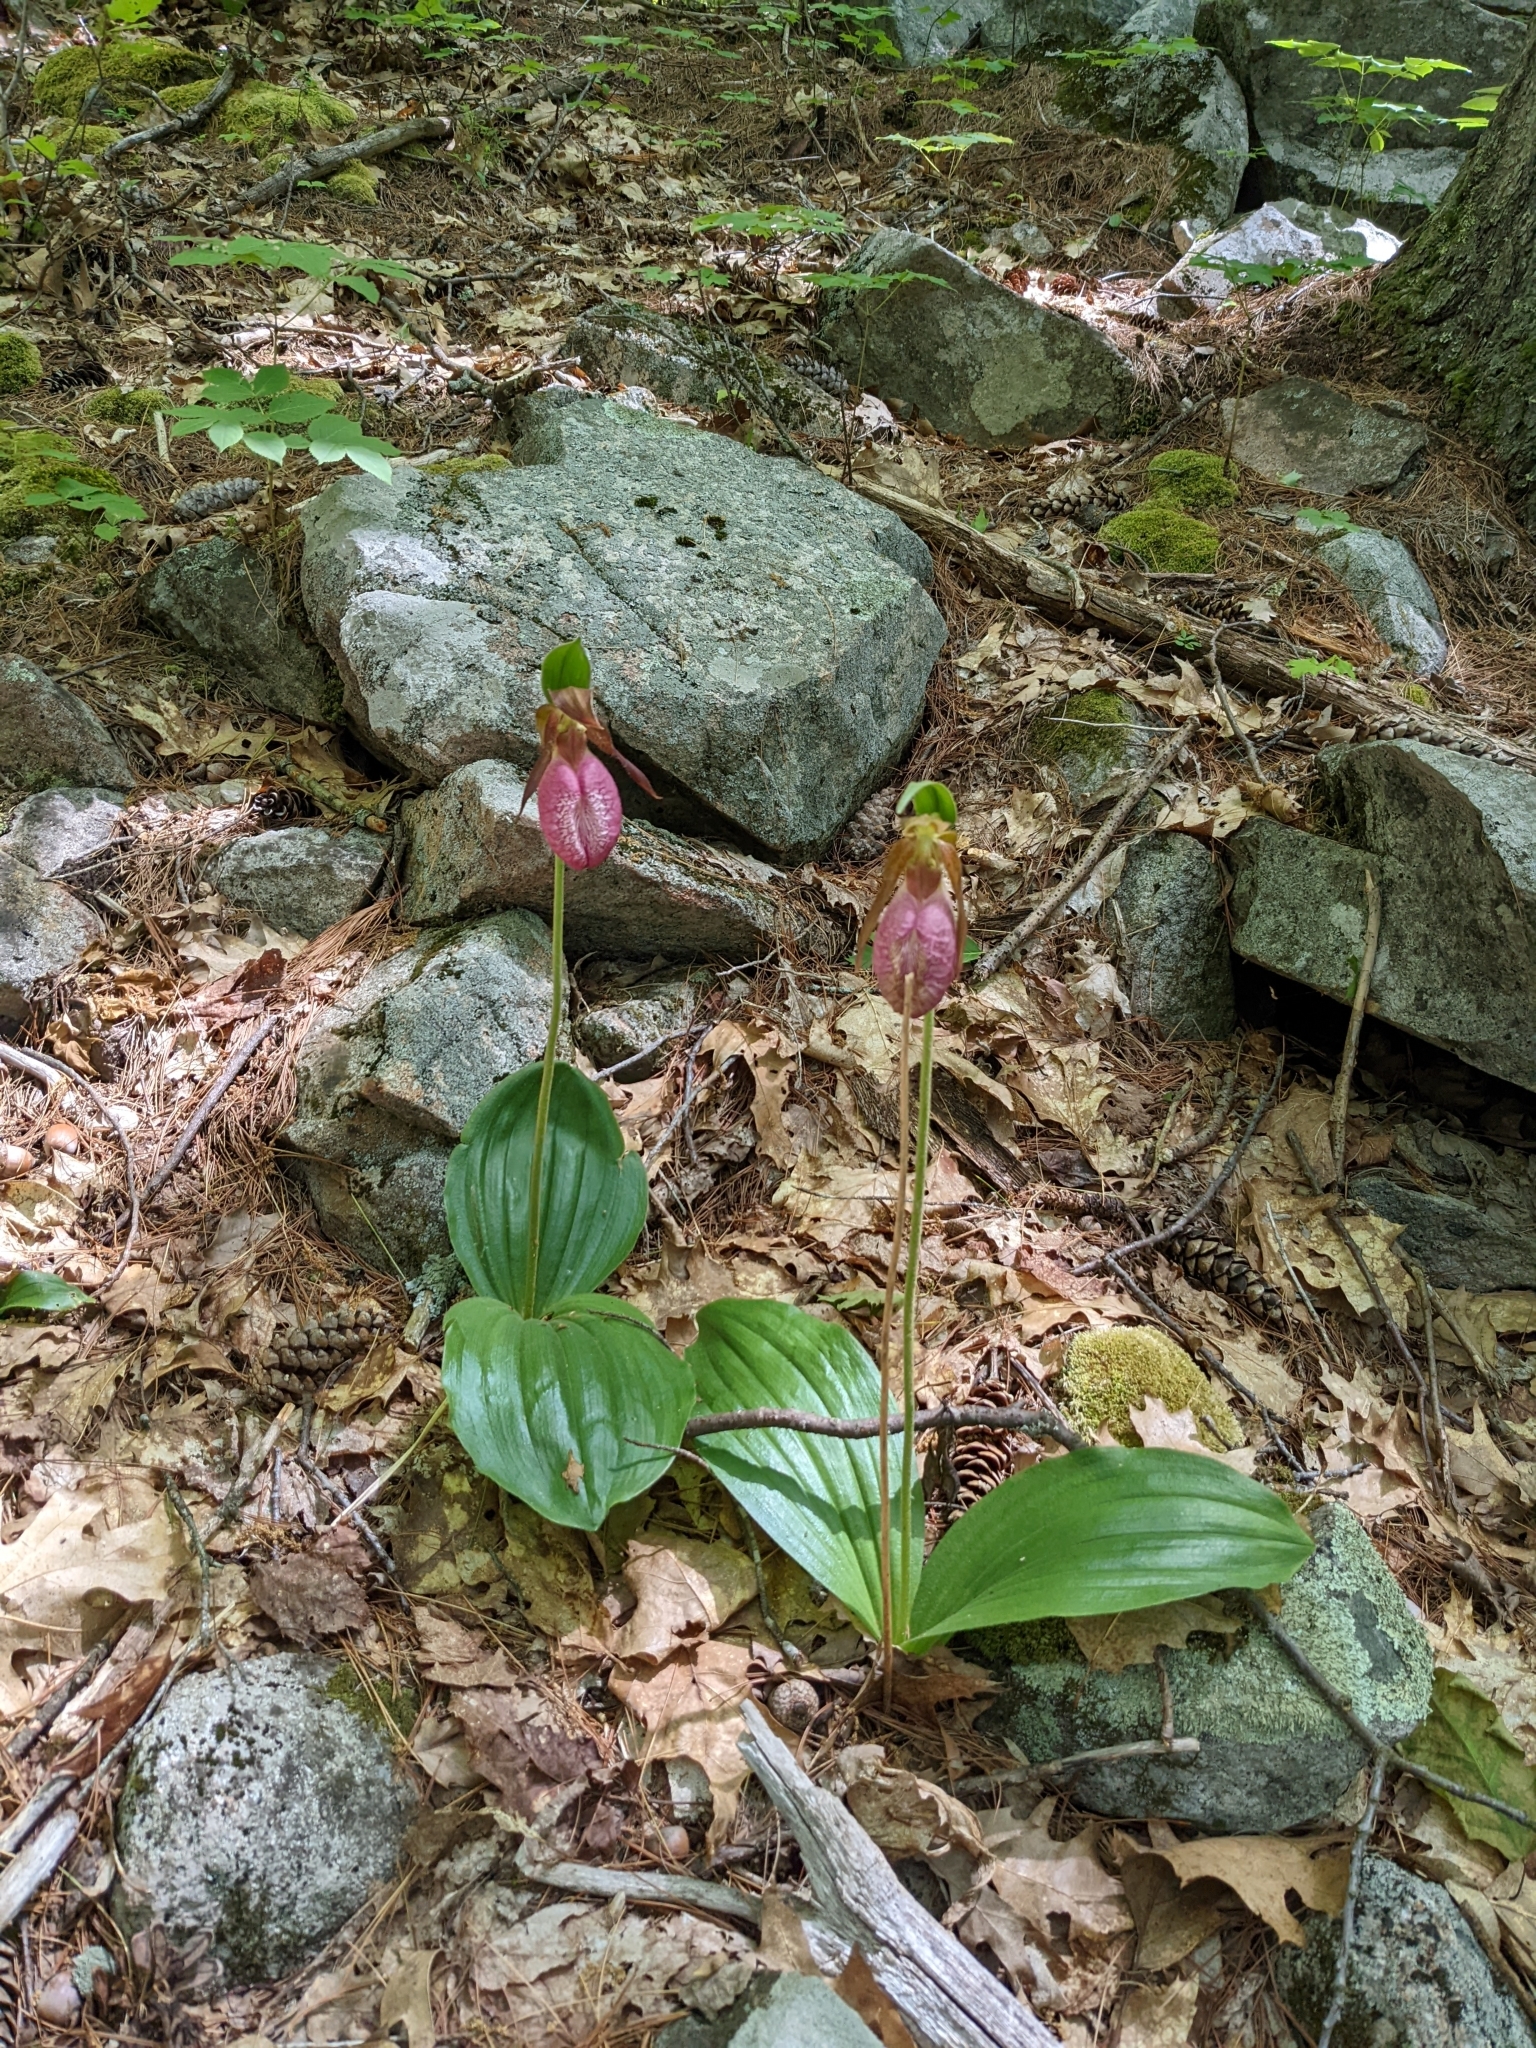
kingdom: Plantae
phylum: Tracheophyta
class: Liliopsida
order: Asparagales
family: Orchidaceae
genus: Cypripedium
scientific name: Cypripedium acaule
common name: Pink lady's-slipper
